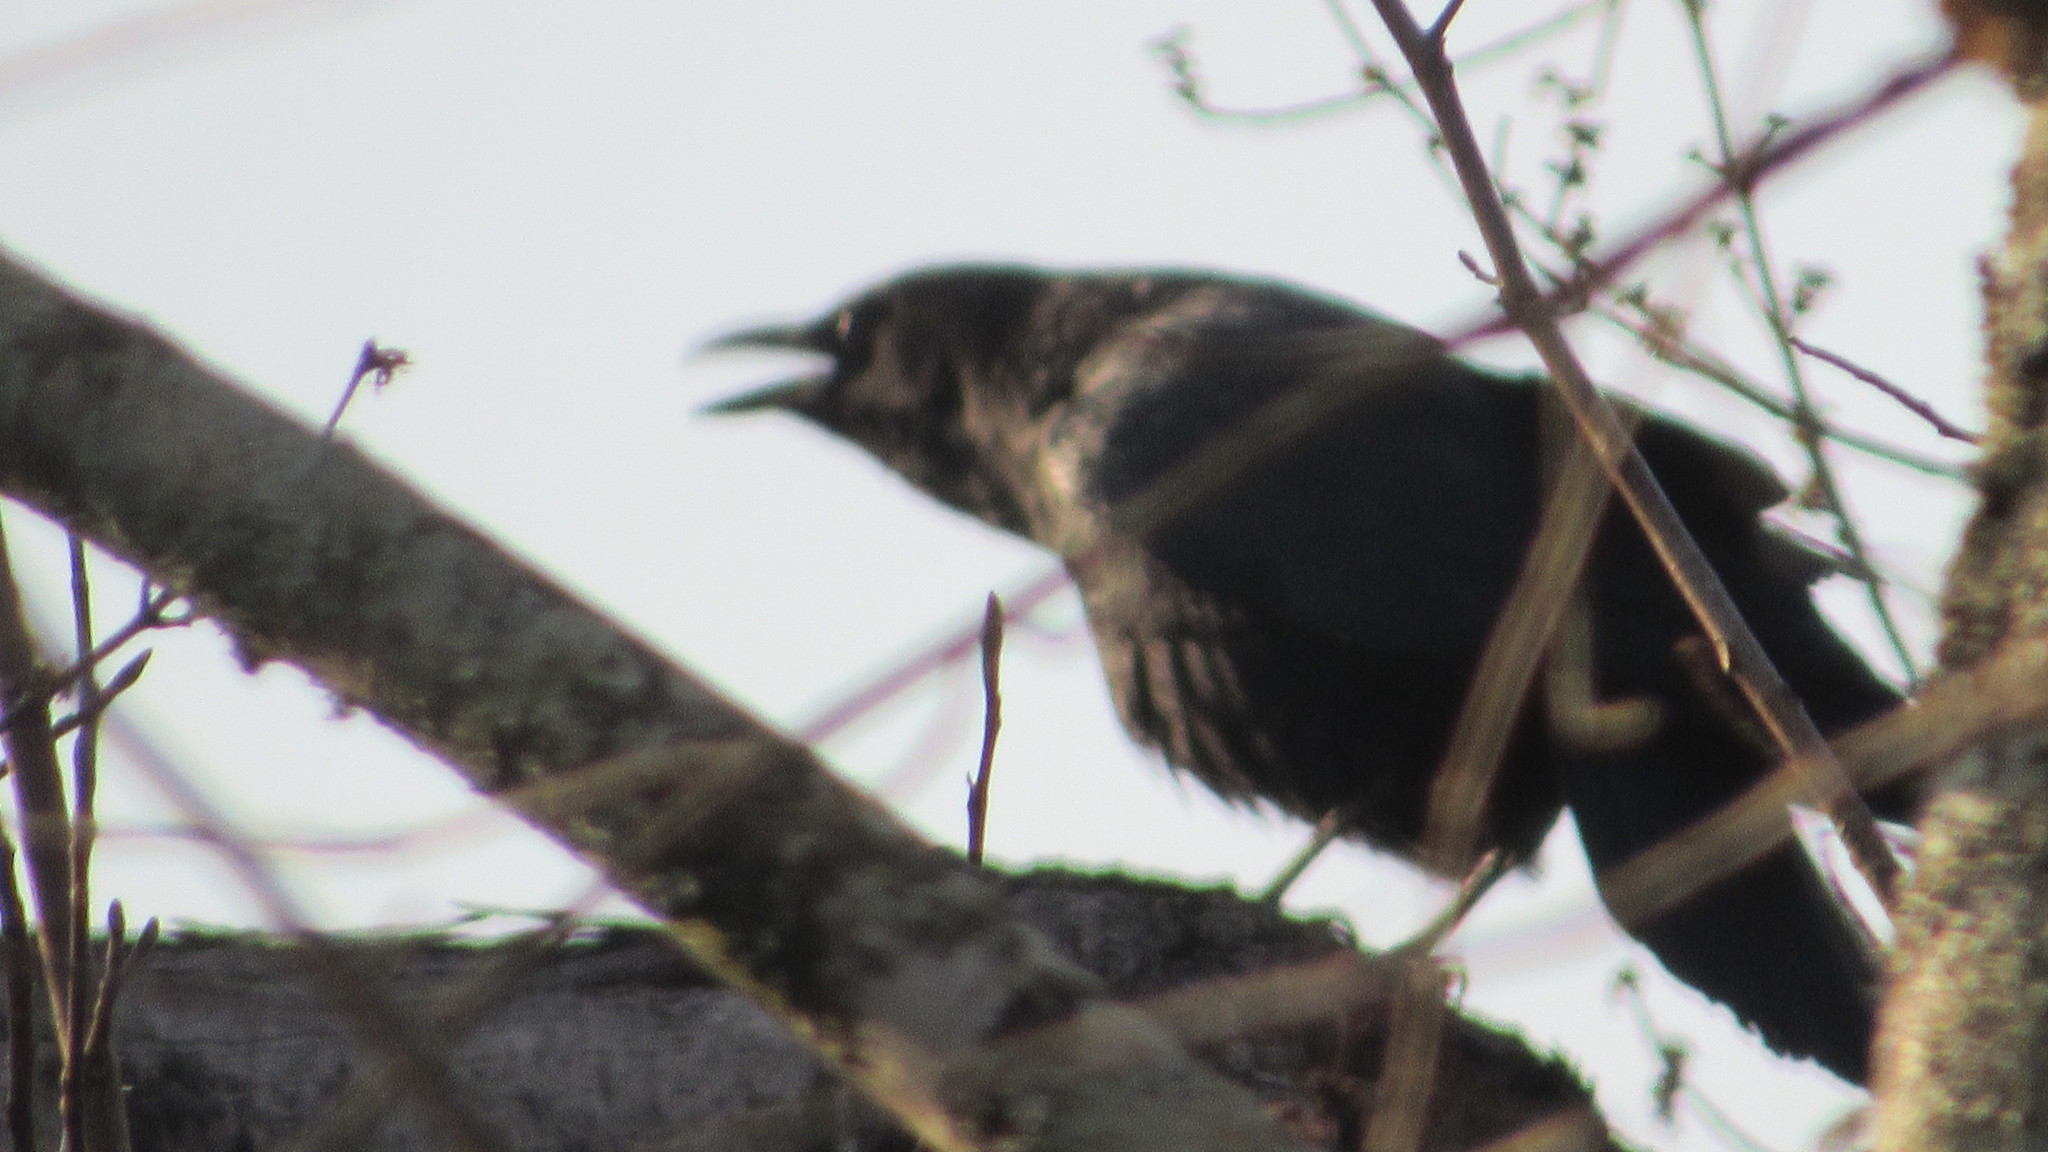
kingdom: Animalia
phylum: Chordata
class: Aves
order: Passeriformes
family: Corvidae
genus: Corvus
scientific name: Corvus brachyrhynchos
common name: American crow
